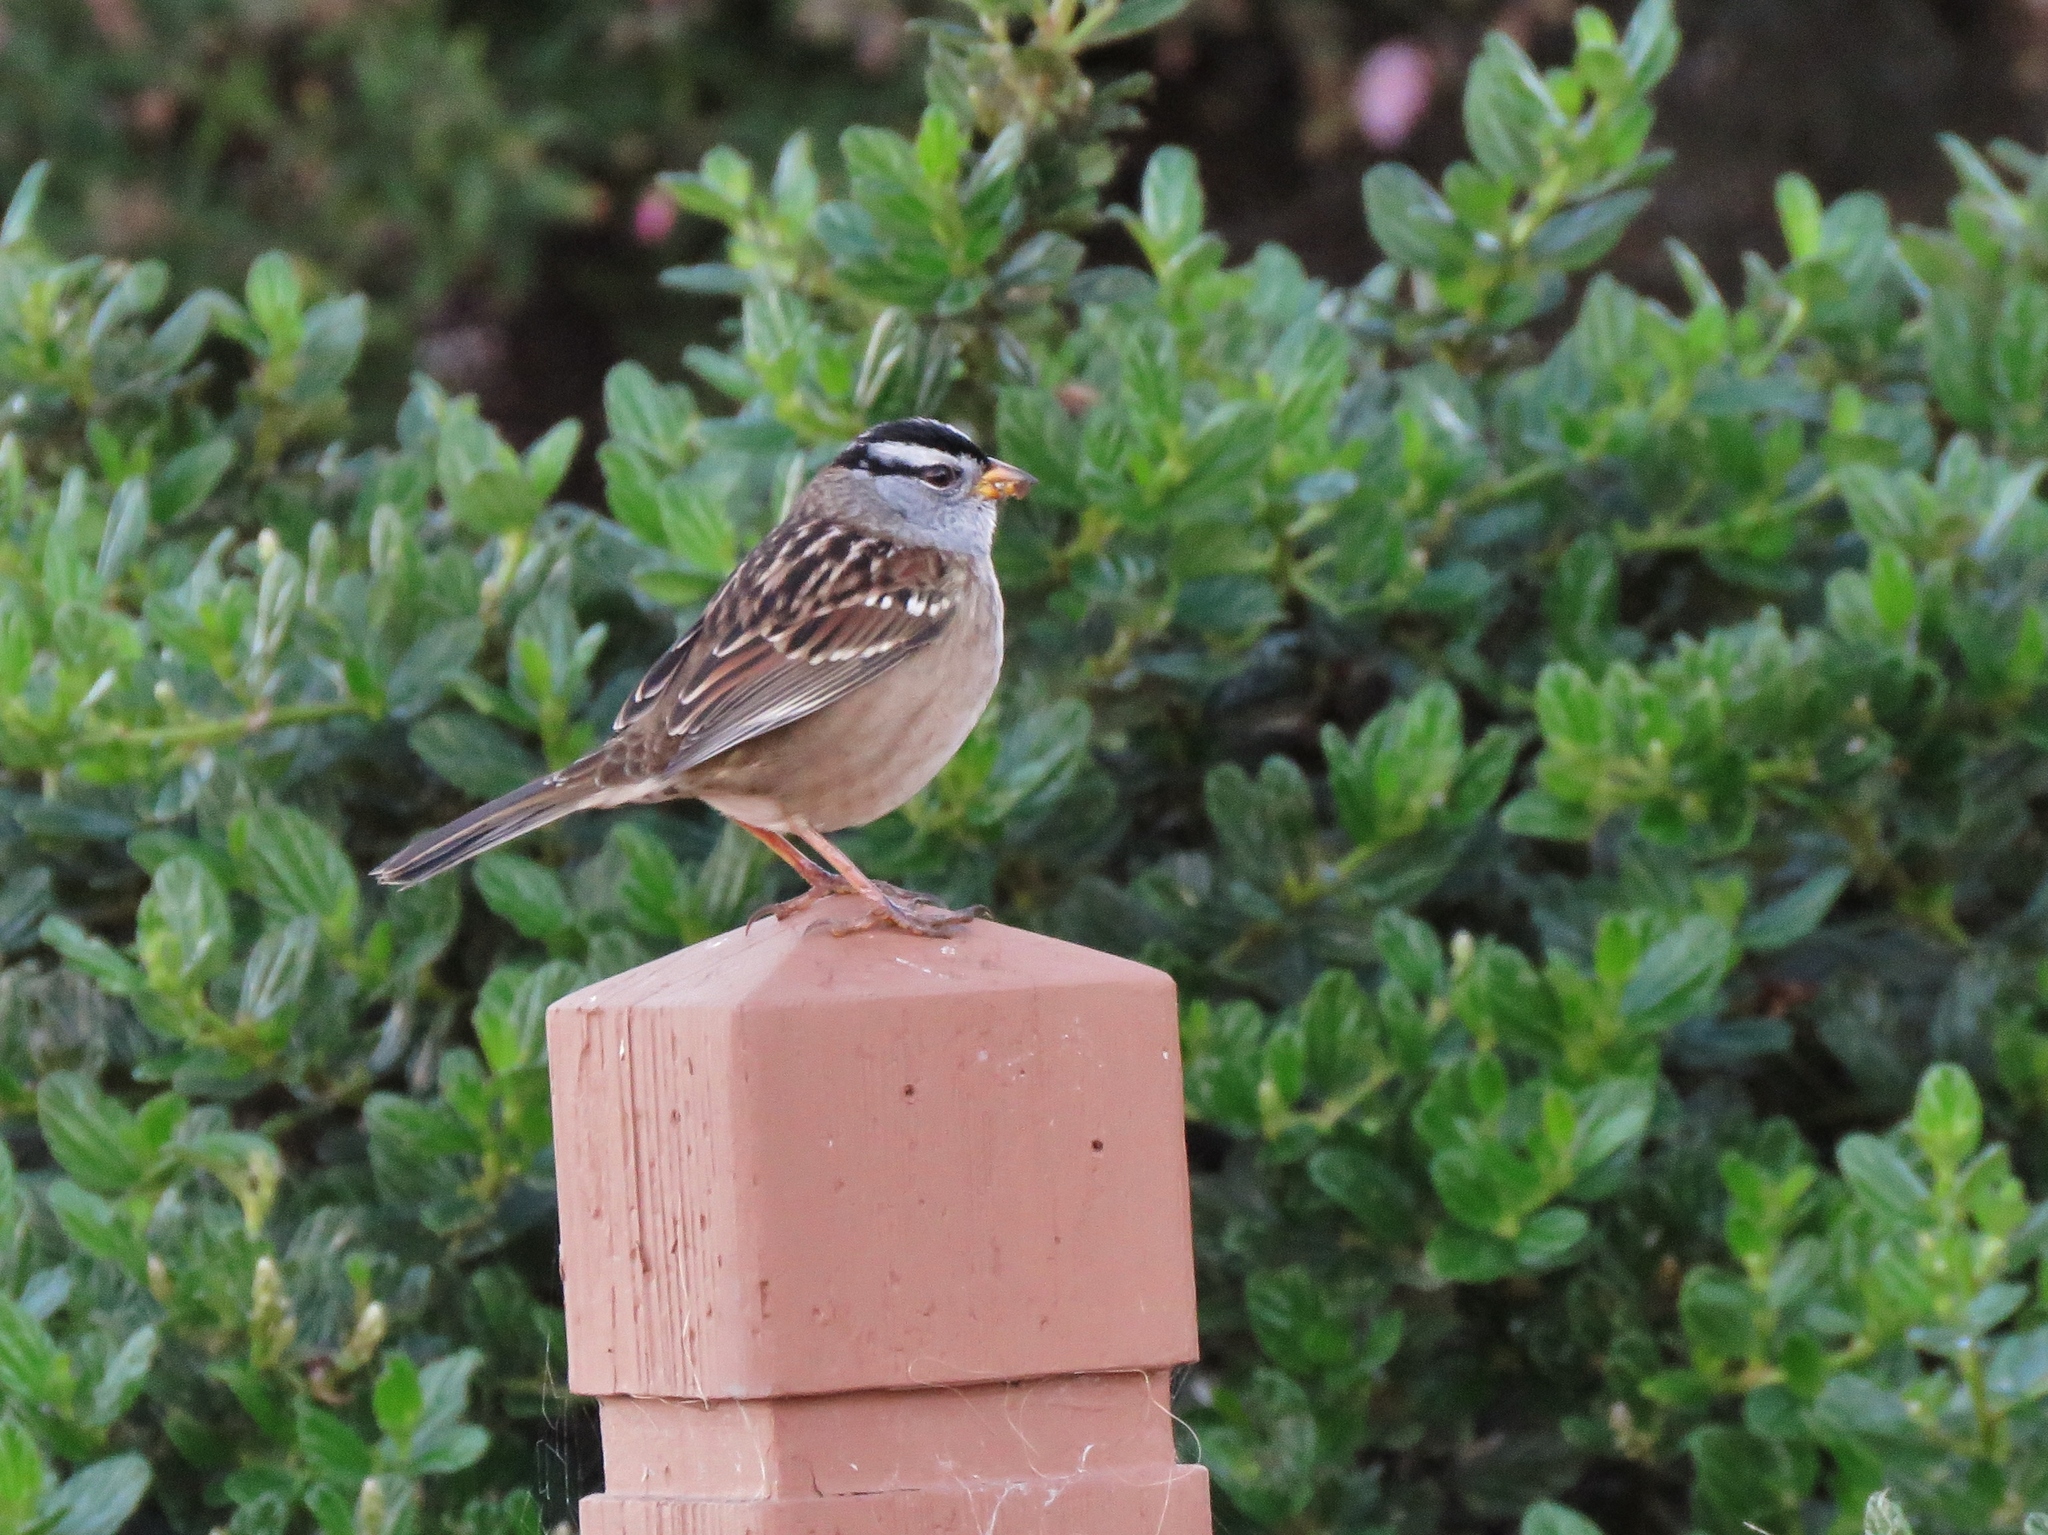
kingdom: Animalia
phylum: Chordata
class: Aves
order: Passeriformes
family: Passerellidae
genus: Zonotrichia
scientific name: Zonotrichia leucophrys
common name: White-crowned sparrow
